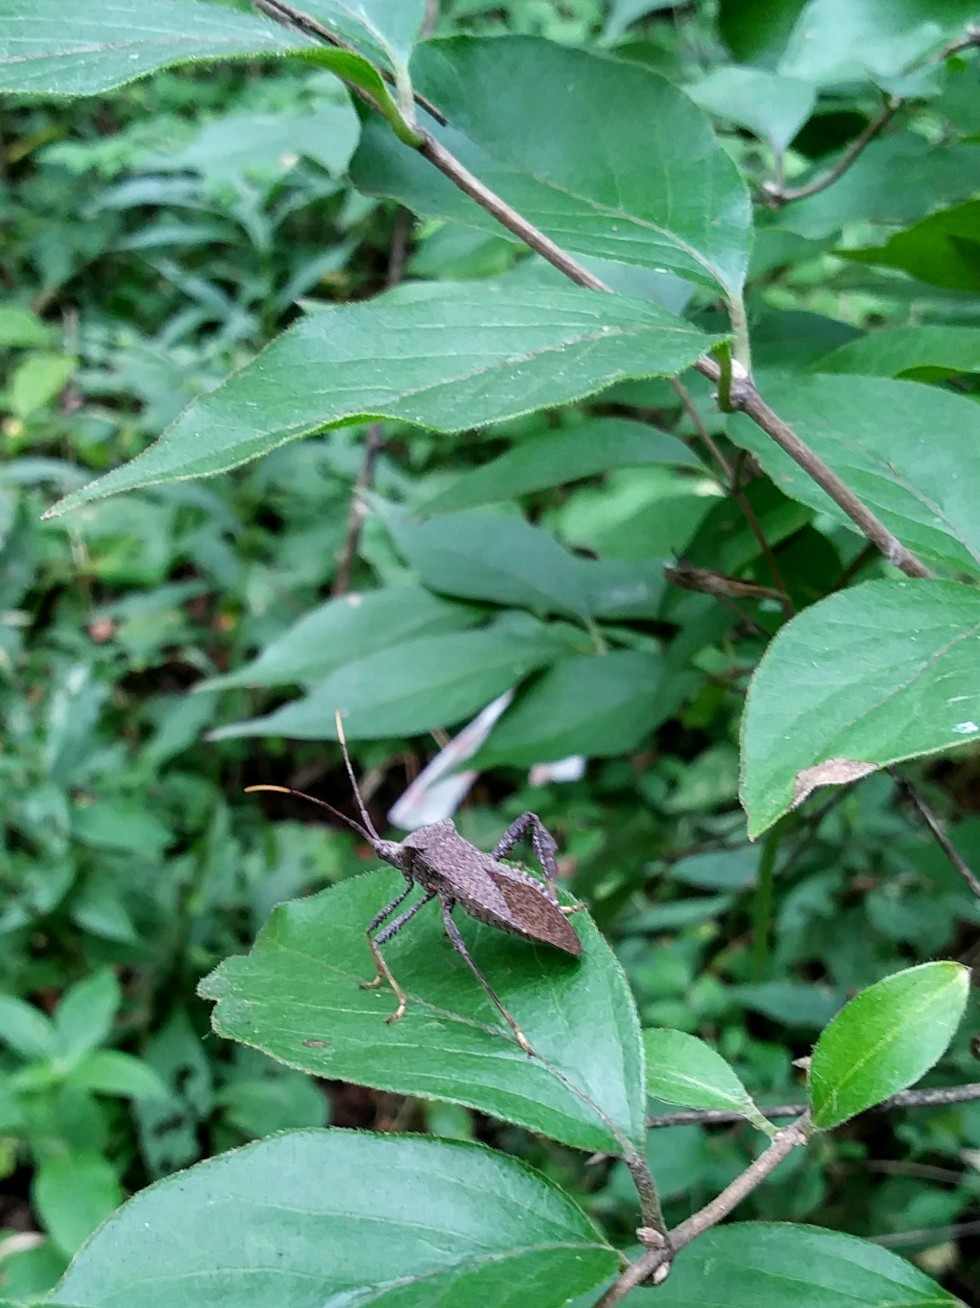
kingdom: Animalia
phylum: Arthropoda
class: Insecta
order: Hemiptera
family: Coreidae
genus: Acanthocephala
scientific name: Acanthocephala terminalis
